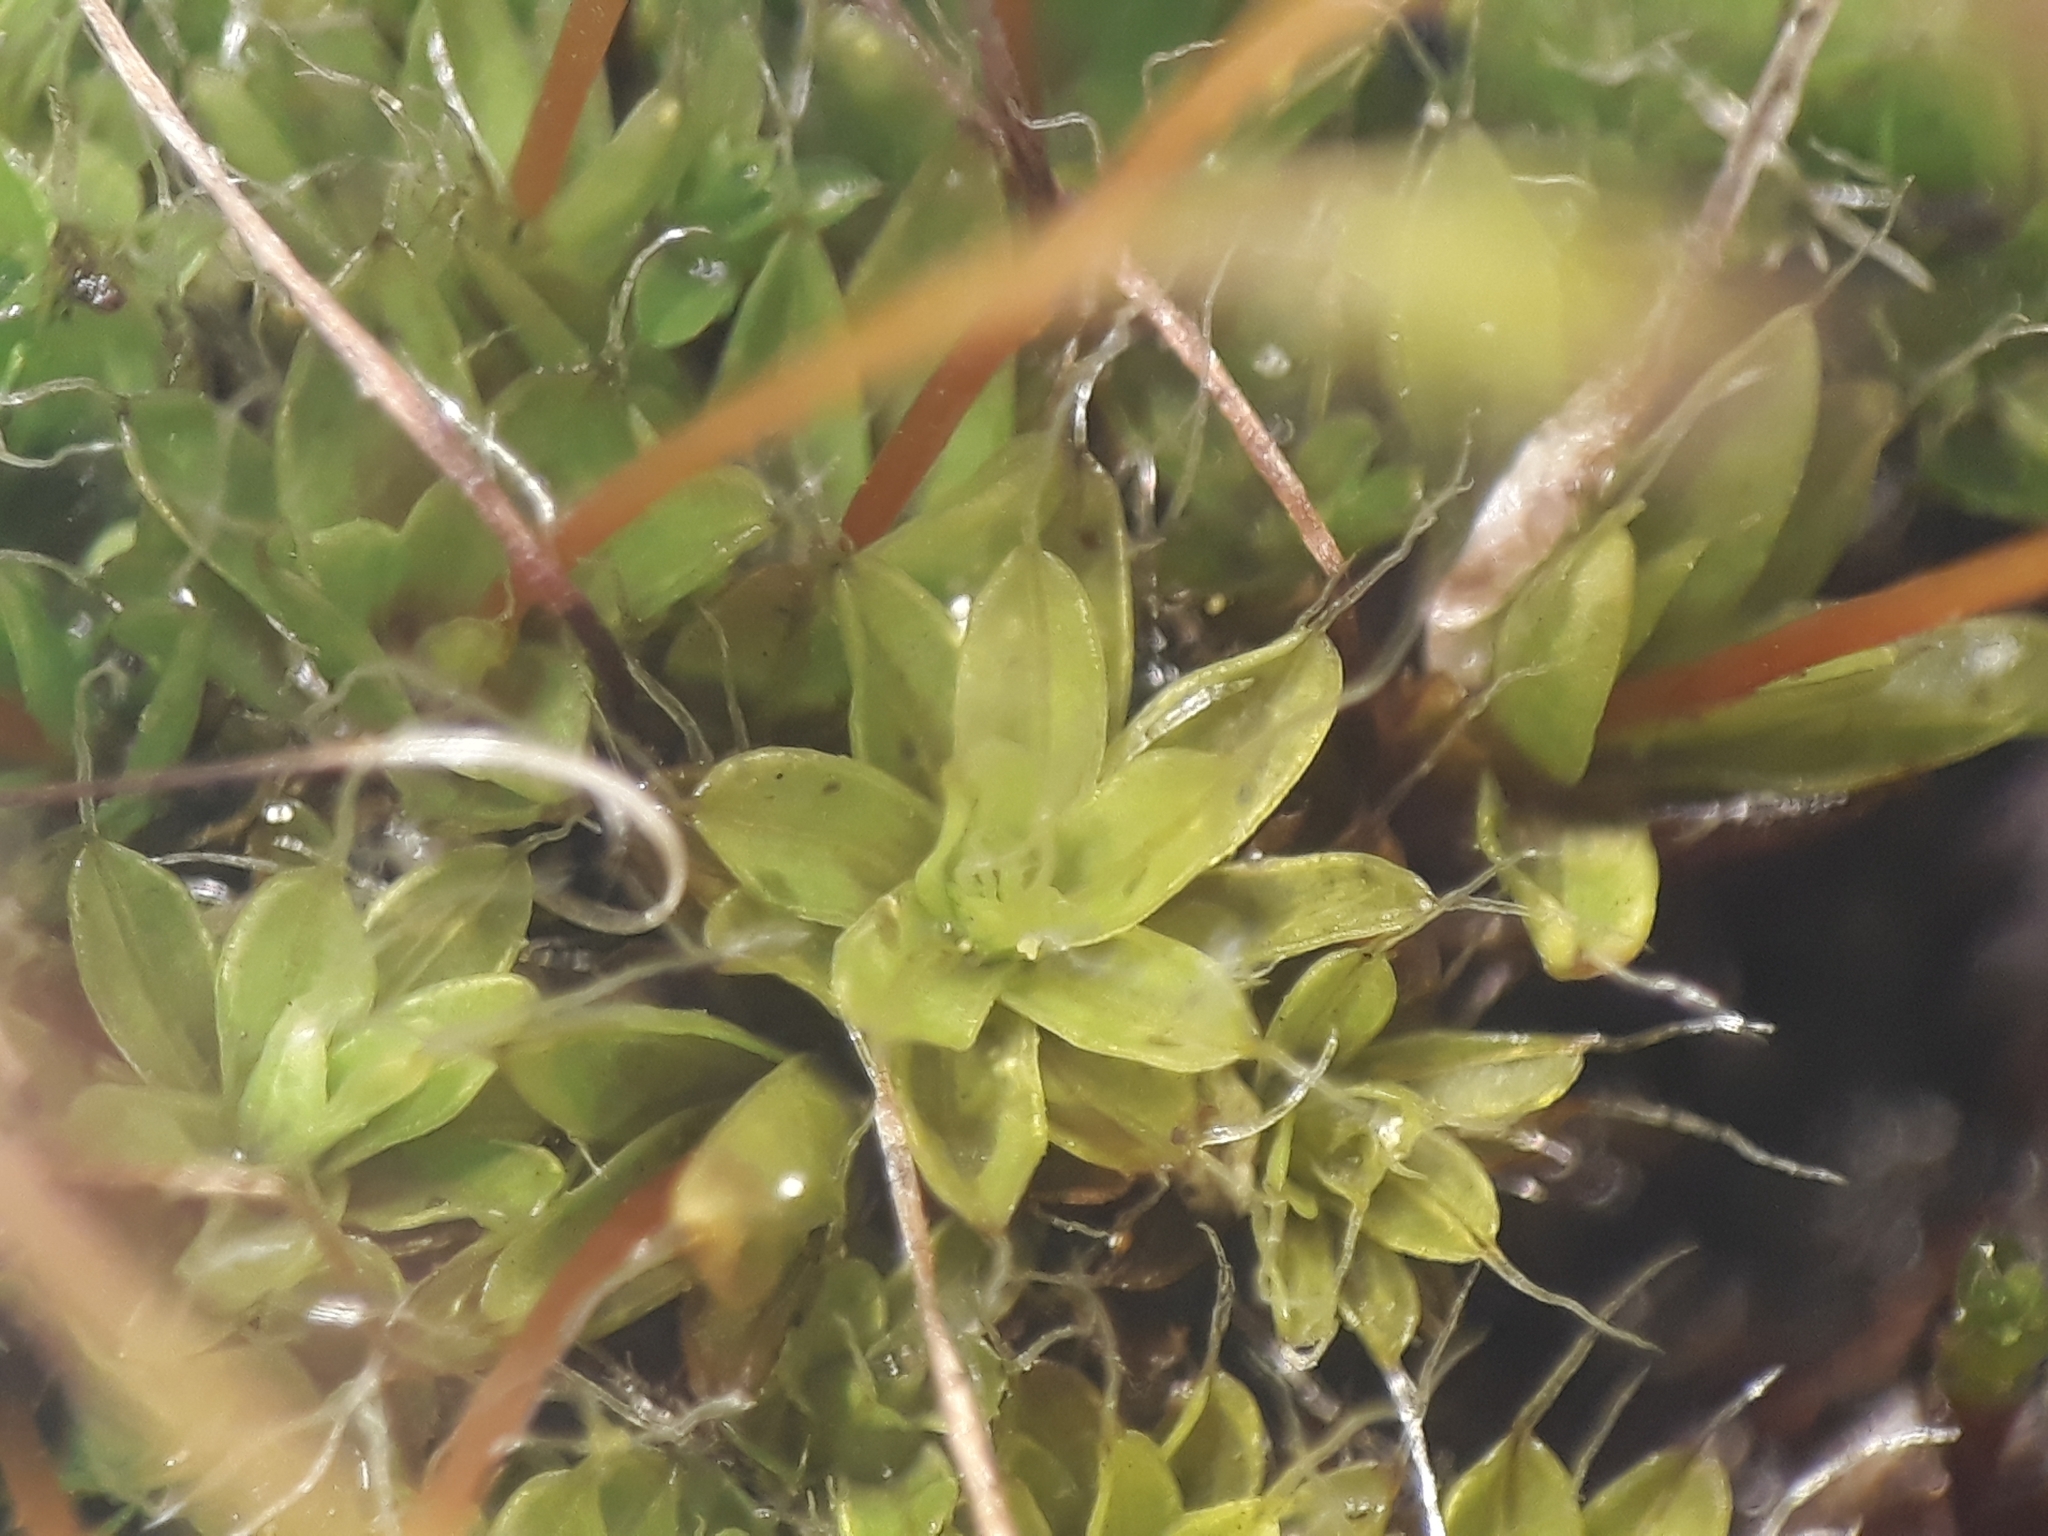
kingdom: Plantae
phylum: Bryophyta
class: Bryopsida
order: Pottiales
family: Pottiaceae
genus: Tortula
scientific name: Tortula muralis
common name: Wall screw-moss
